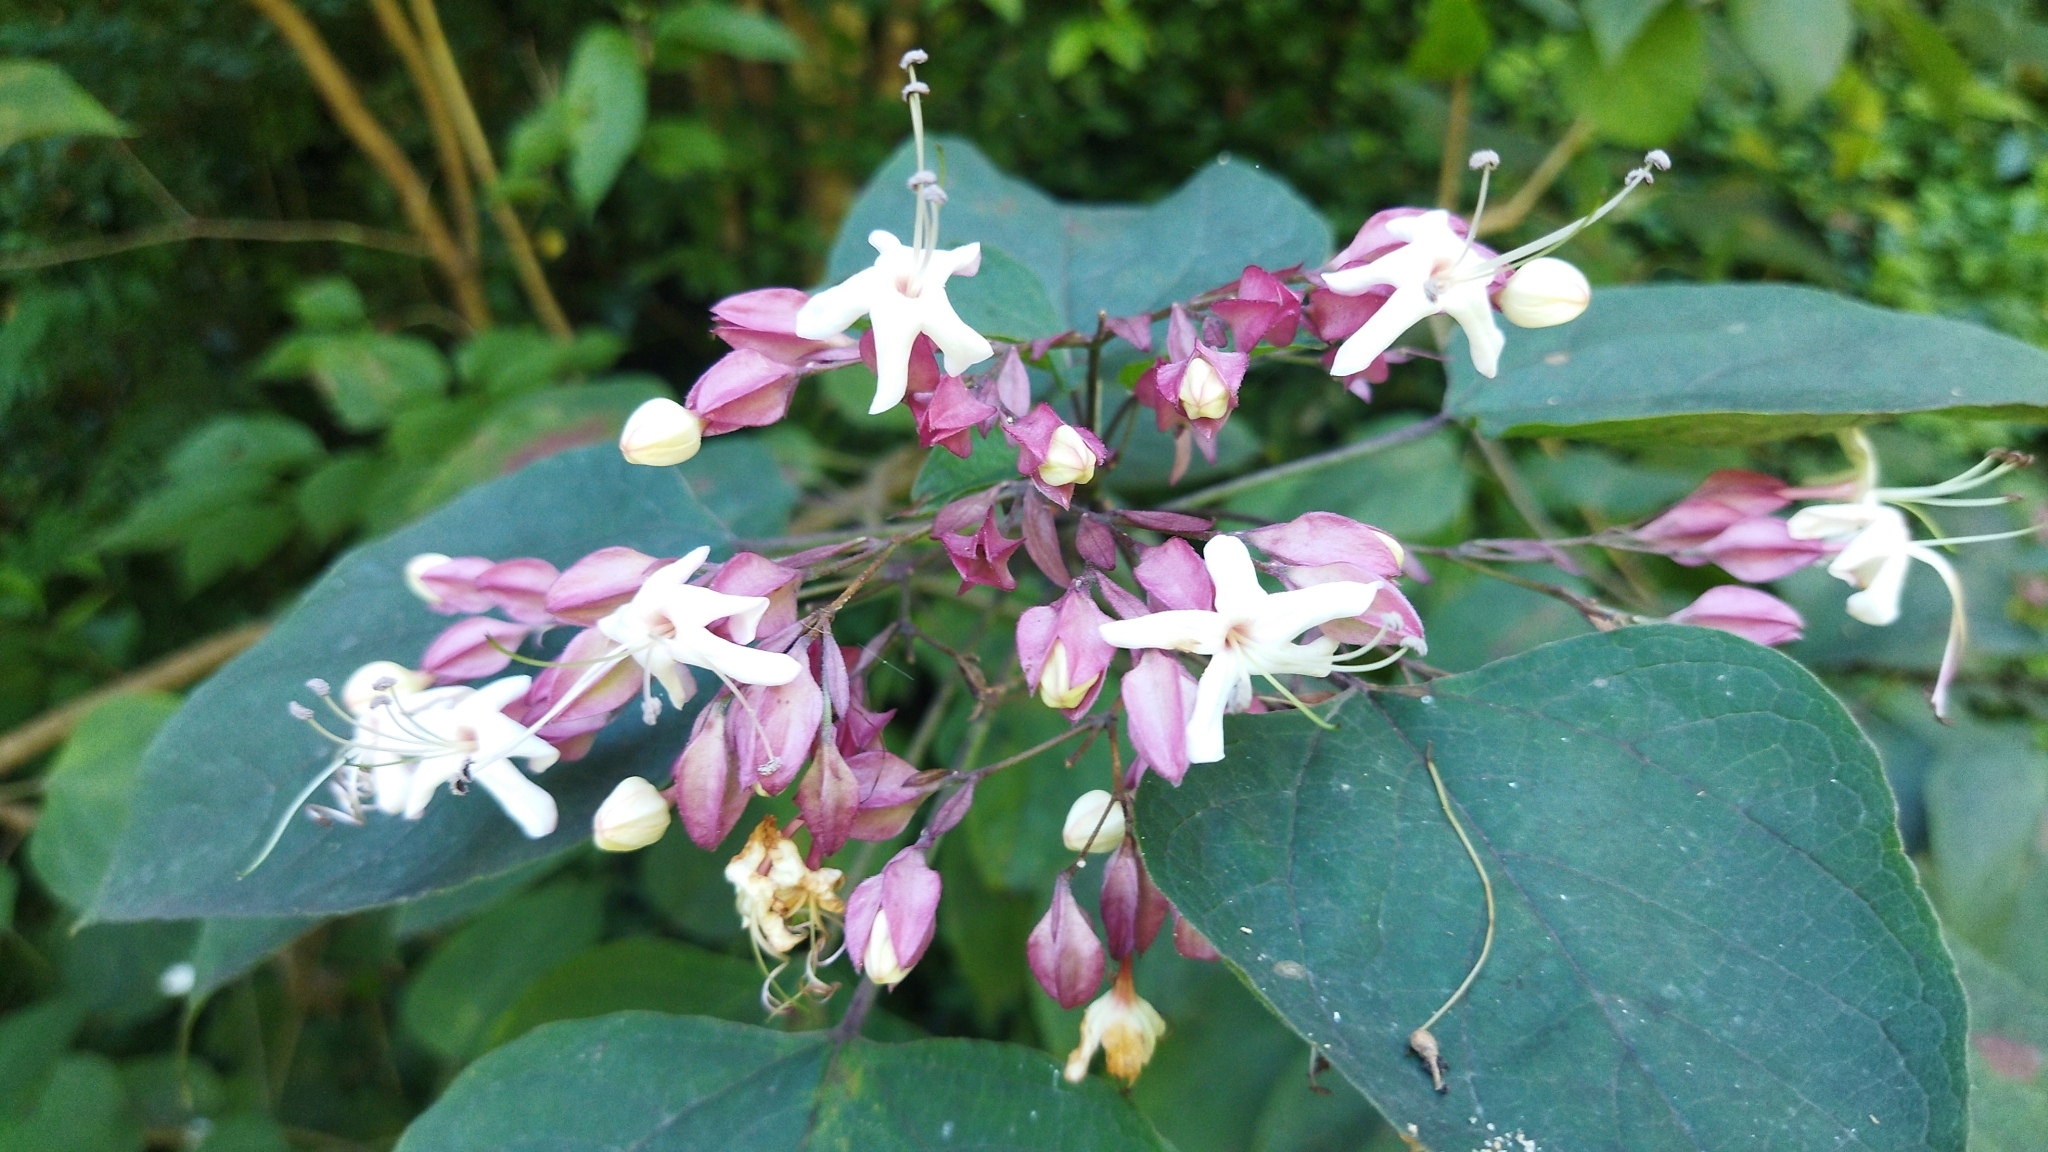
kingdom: Plantae
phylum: Tracheophyta
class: Magnoliopsida
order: Lamiales
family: Lamiaceae
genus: Clerodendrum
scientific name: Clerodendrum trichotomum
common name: Harlequin glorybower
